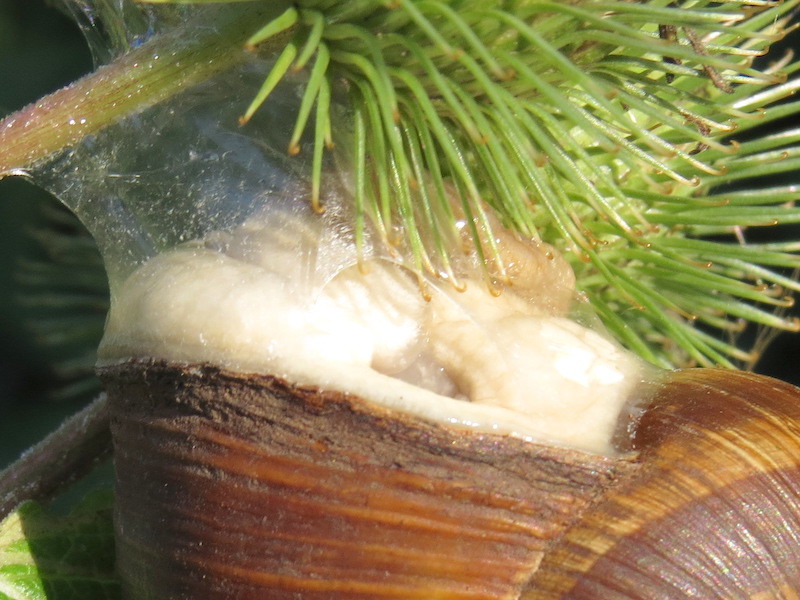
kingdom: Animalia
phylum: Mollusca
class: Gastropoda
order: Stylommatophora
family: Helicidae
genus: Helix
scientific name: Helix pomatia
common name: Roman snail
